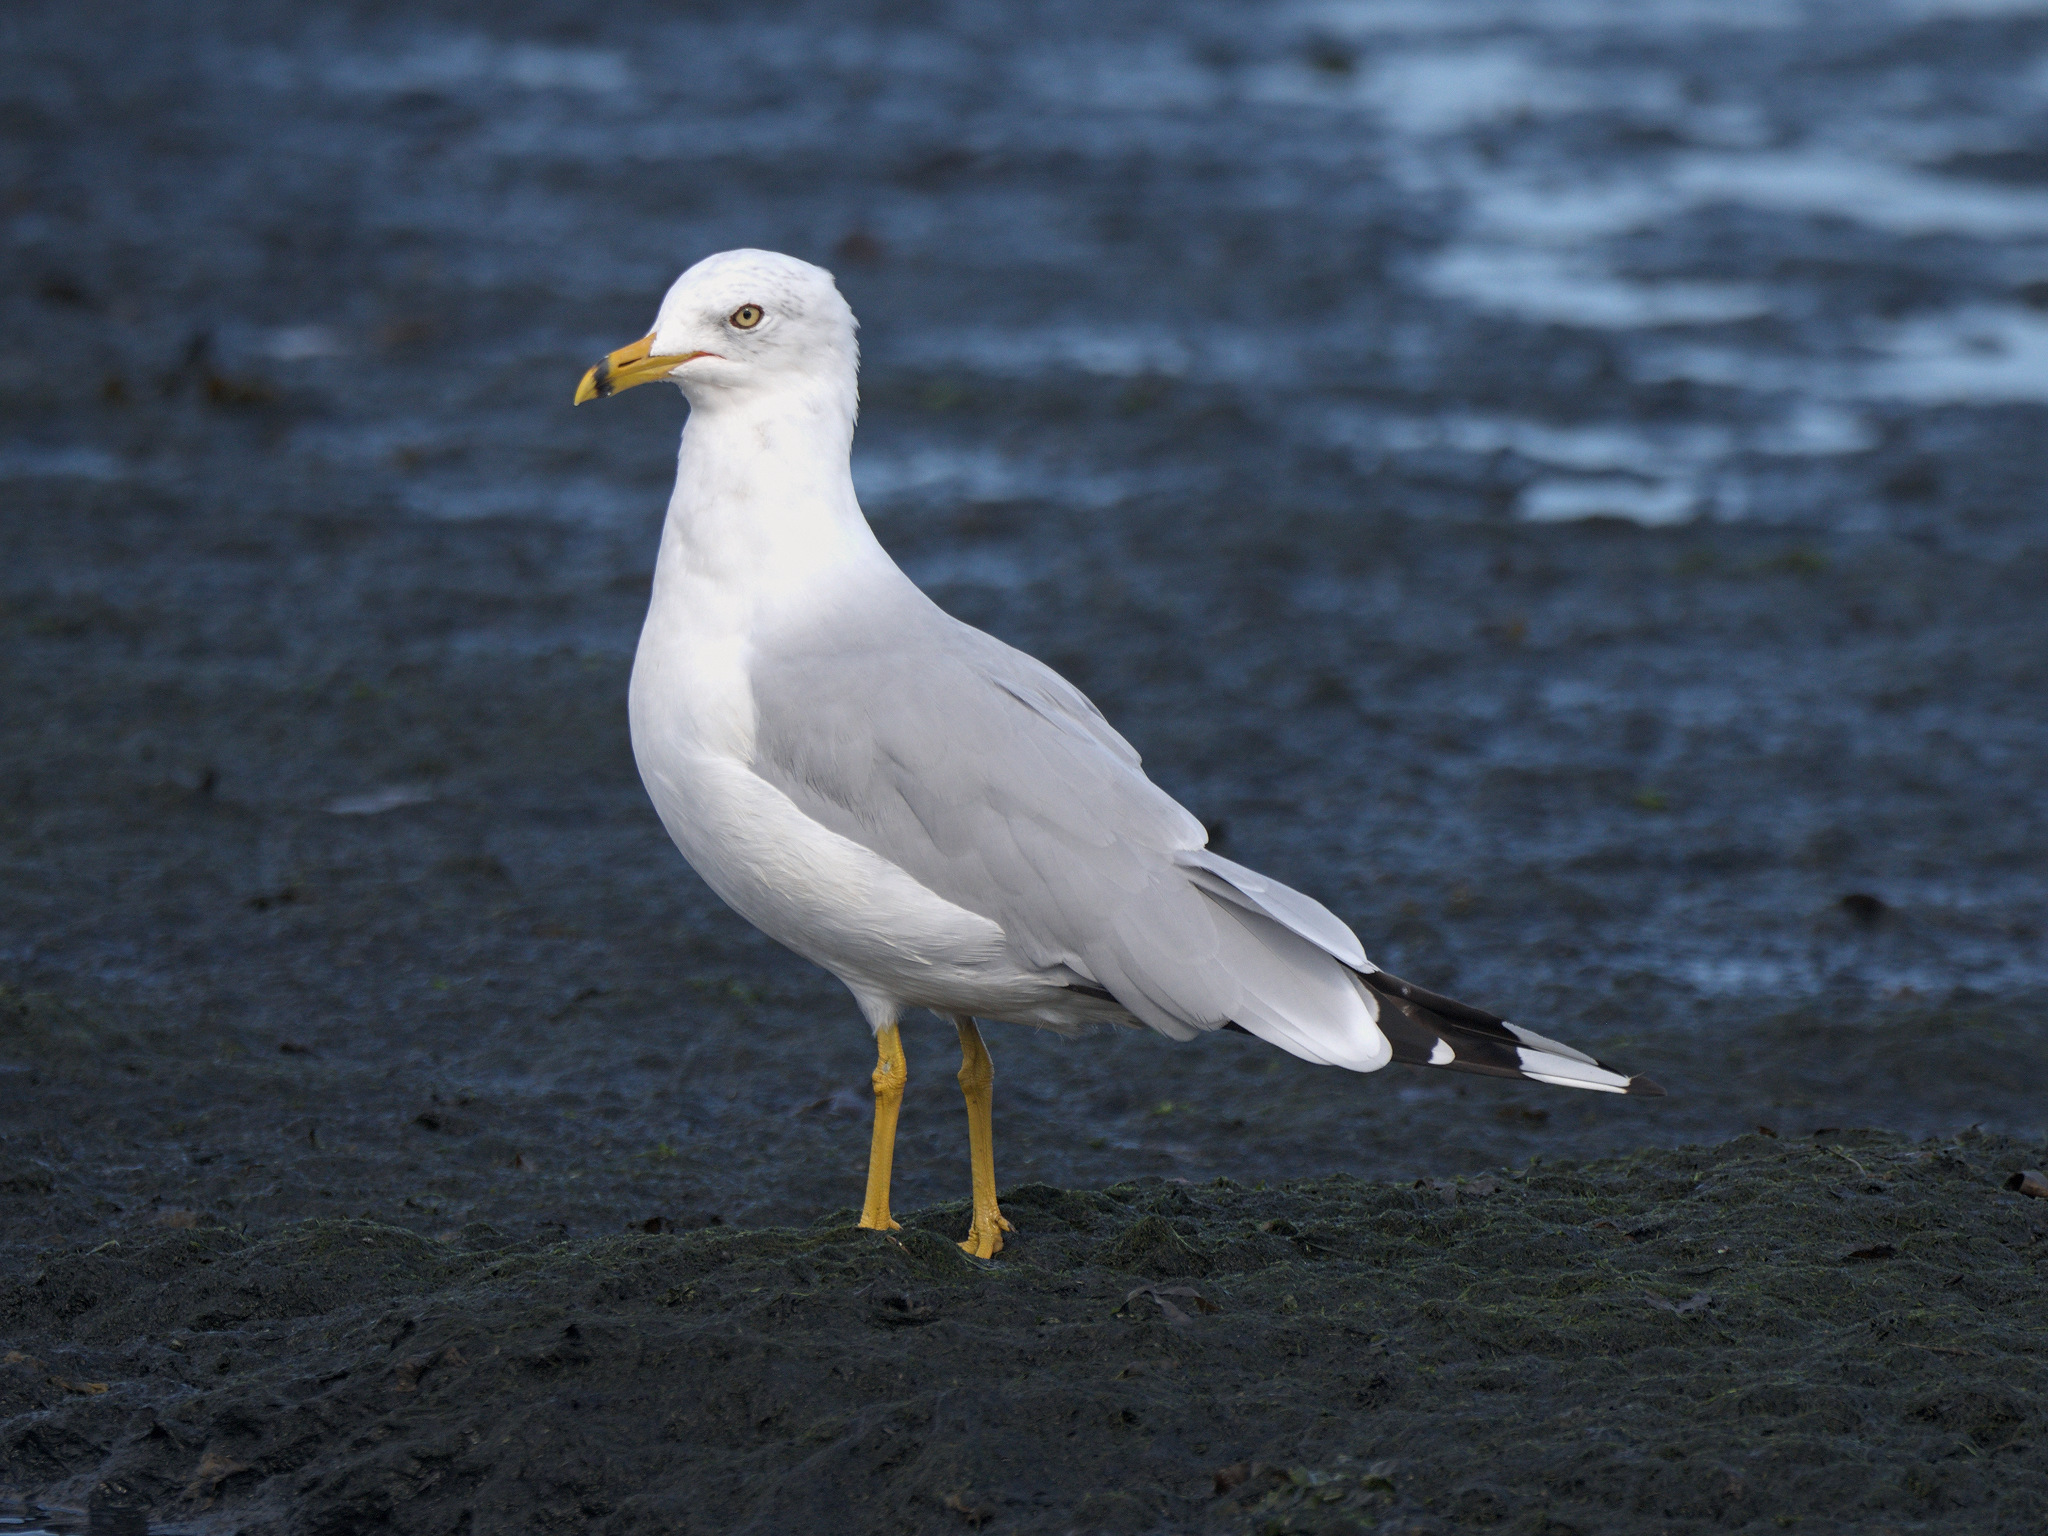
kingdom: Animalia
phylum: Chordata
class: Aves
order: Charadriiformes
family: Laridae
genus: Larus
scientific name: Larus delawarensis
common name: Ring-billed gull
